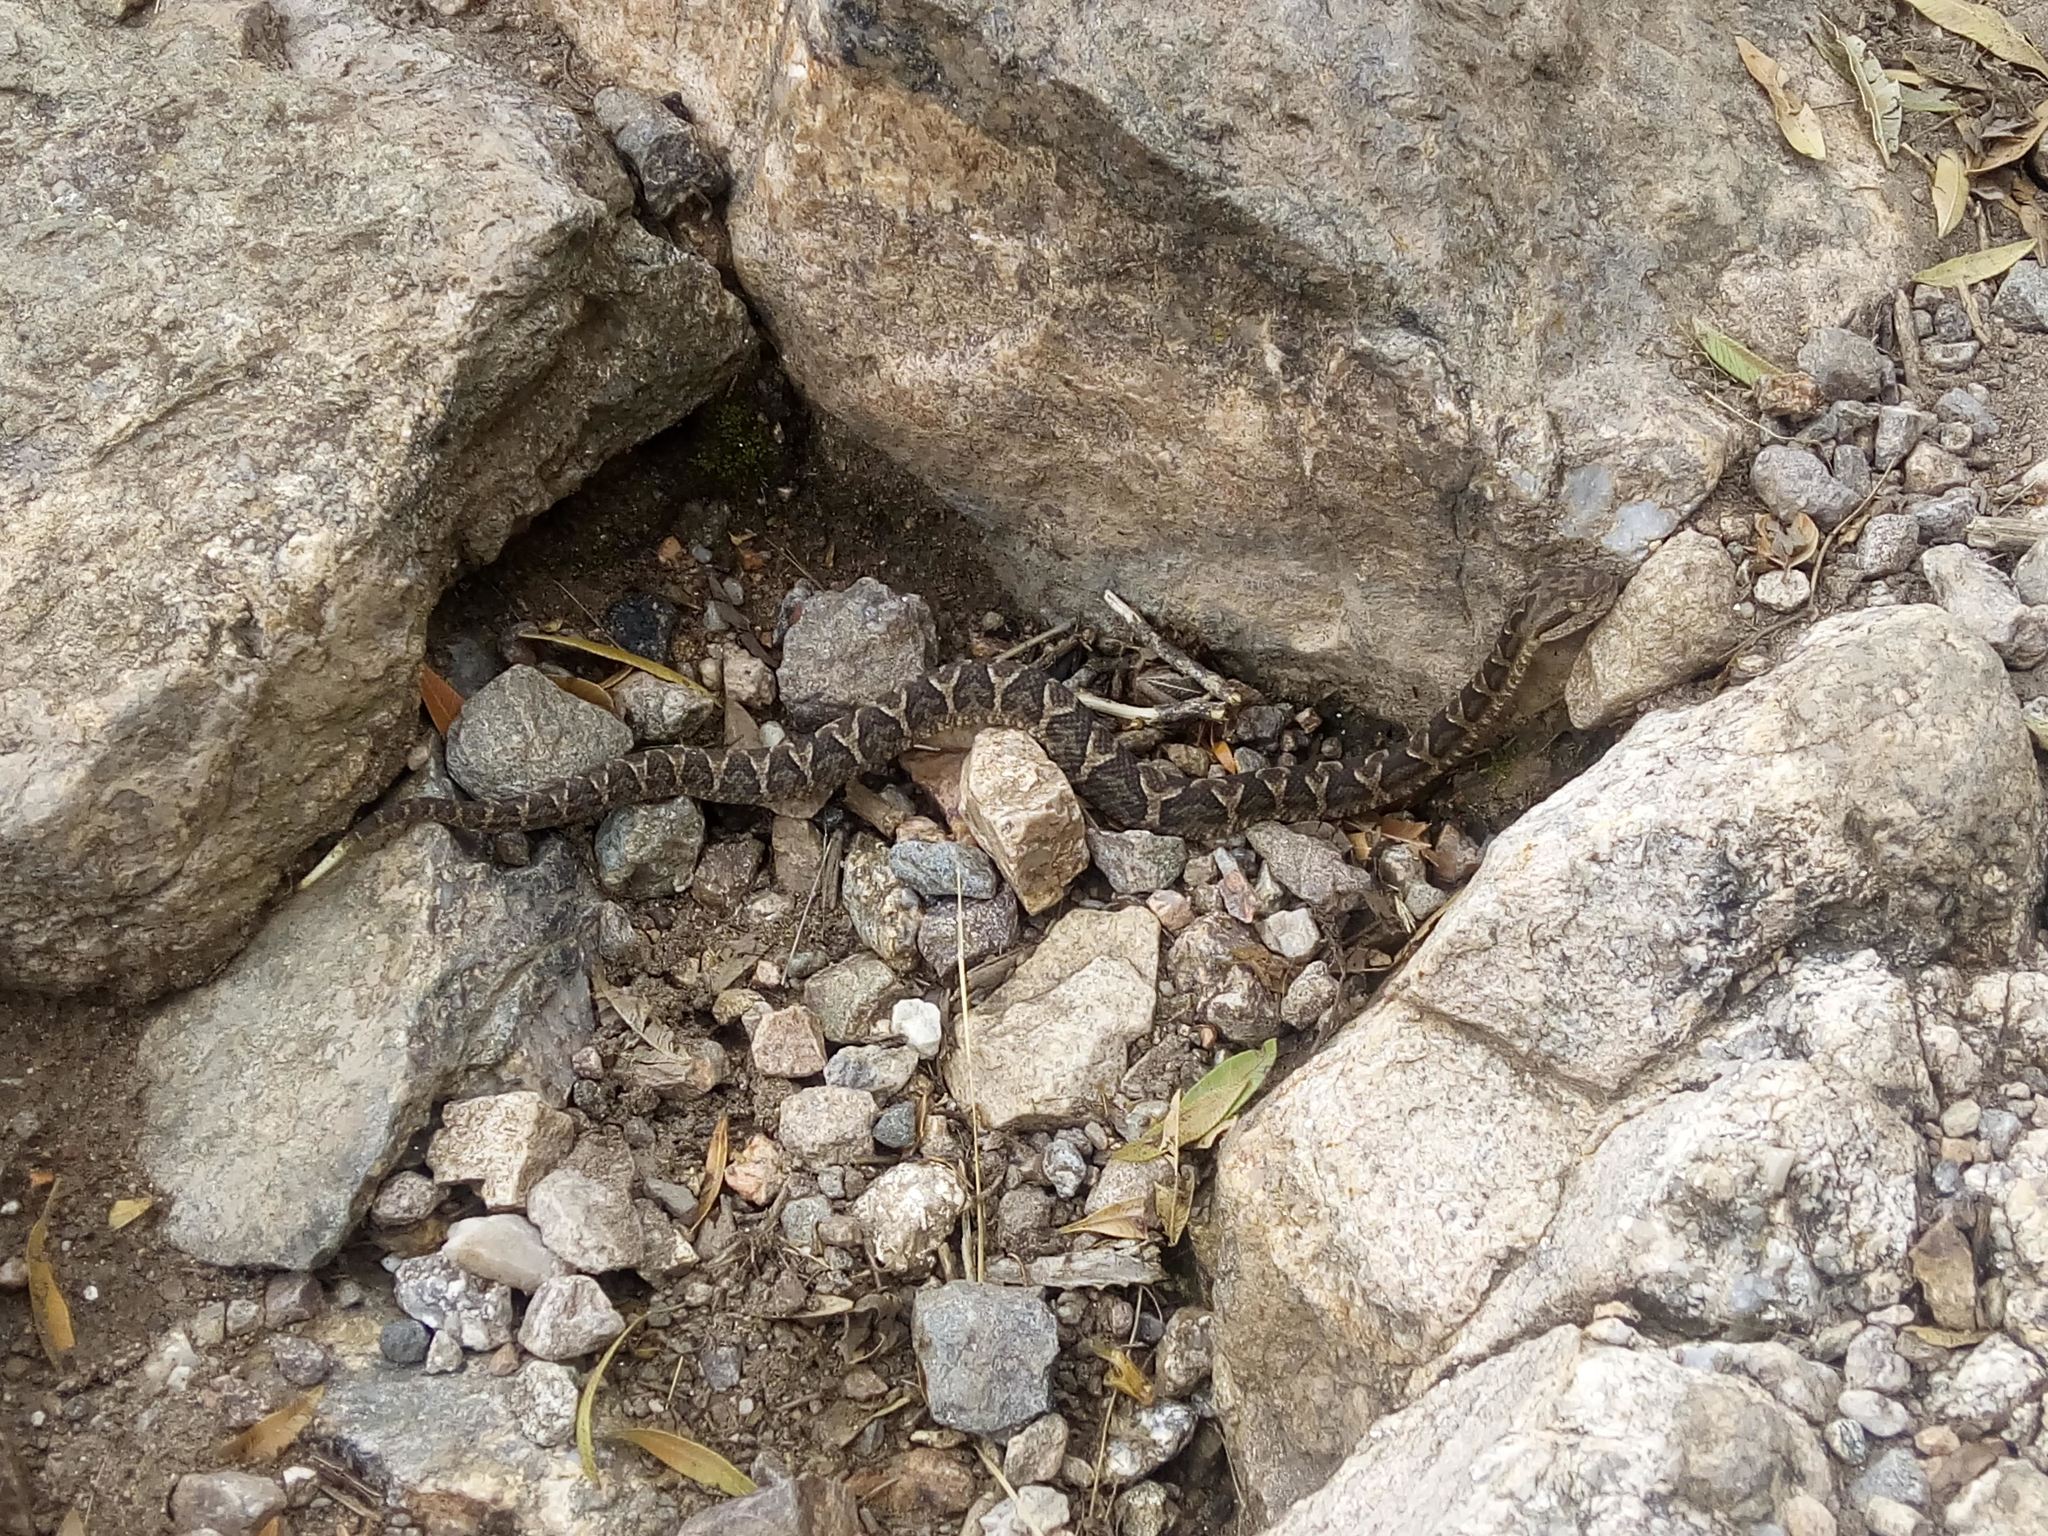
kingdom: Animalia
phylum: Chordata
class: Squamata
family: Viperidae
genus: Bothrops
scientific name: Bothrops diporus
